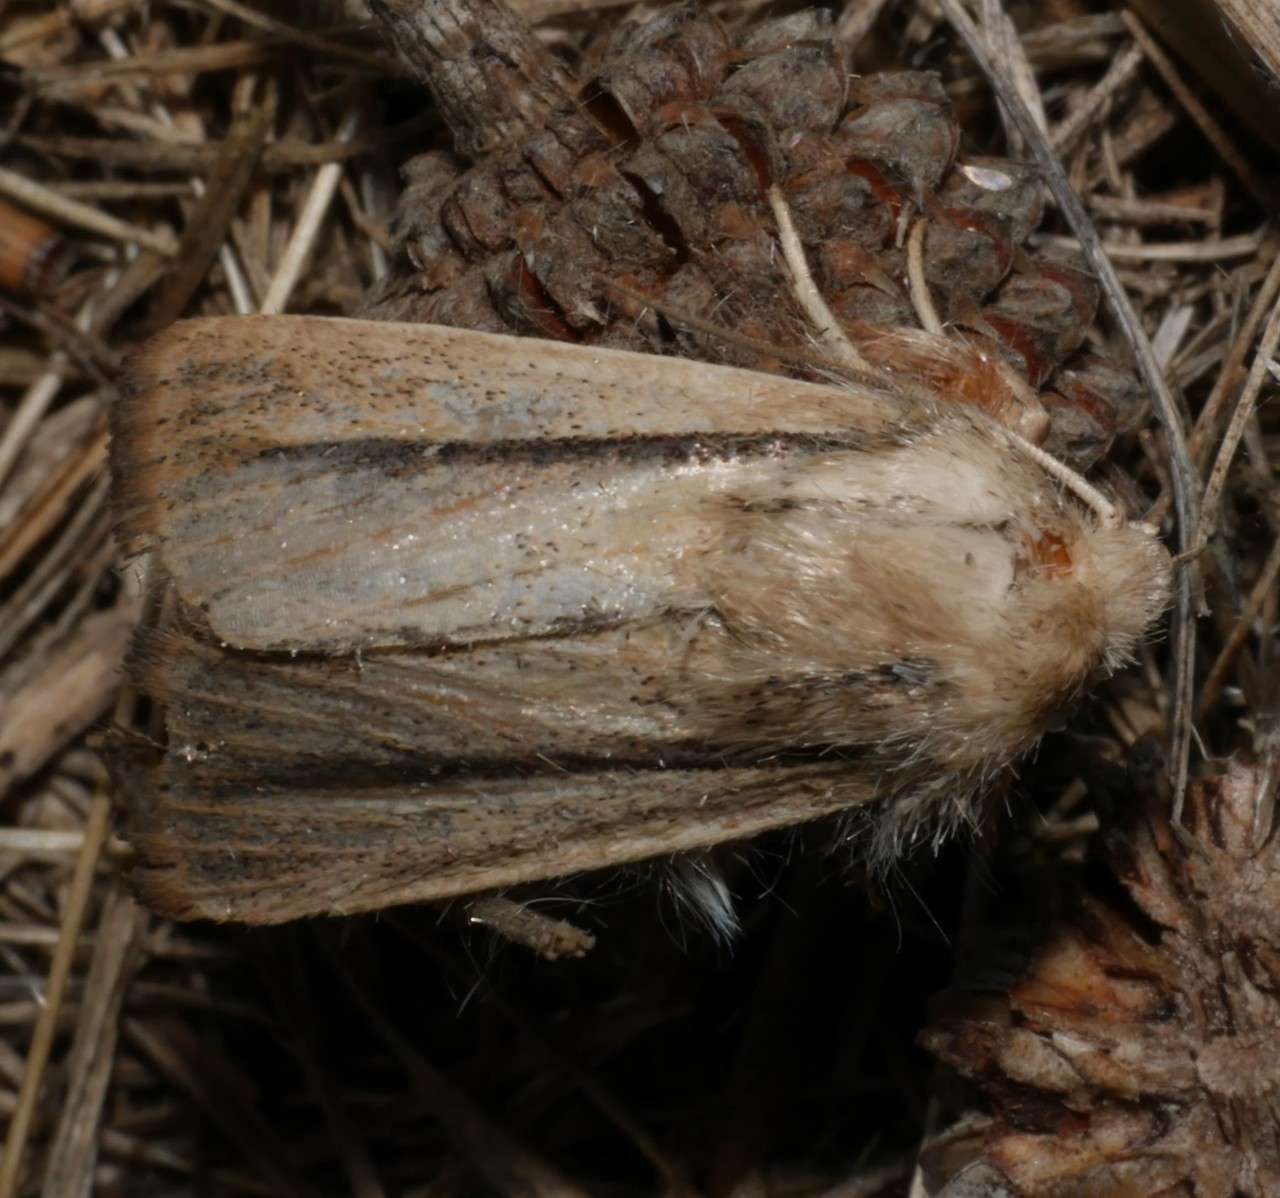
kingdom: Animalia
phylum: Arthropoda
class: Insecta
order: Lepidoptera
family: Noctuidae
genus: Leucania
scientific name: Leucania diatrecta
